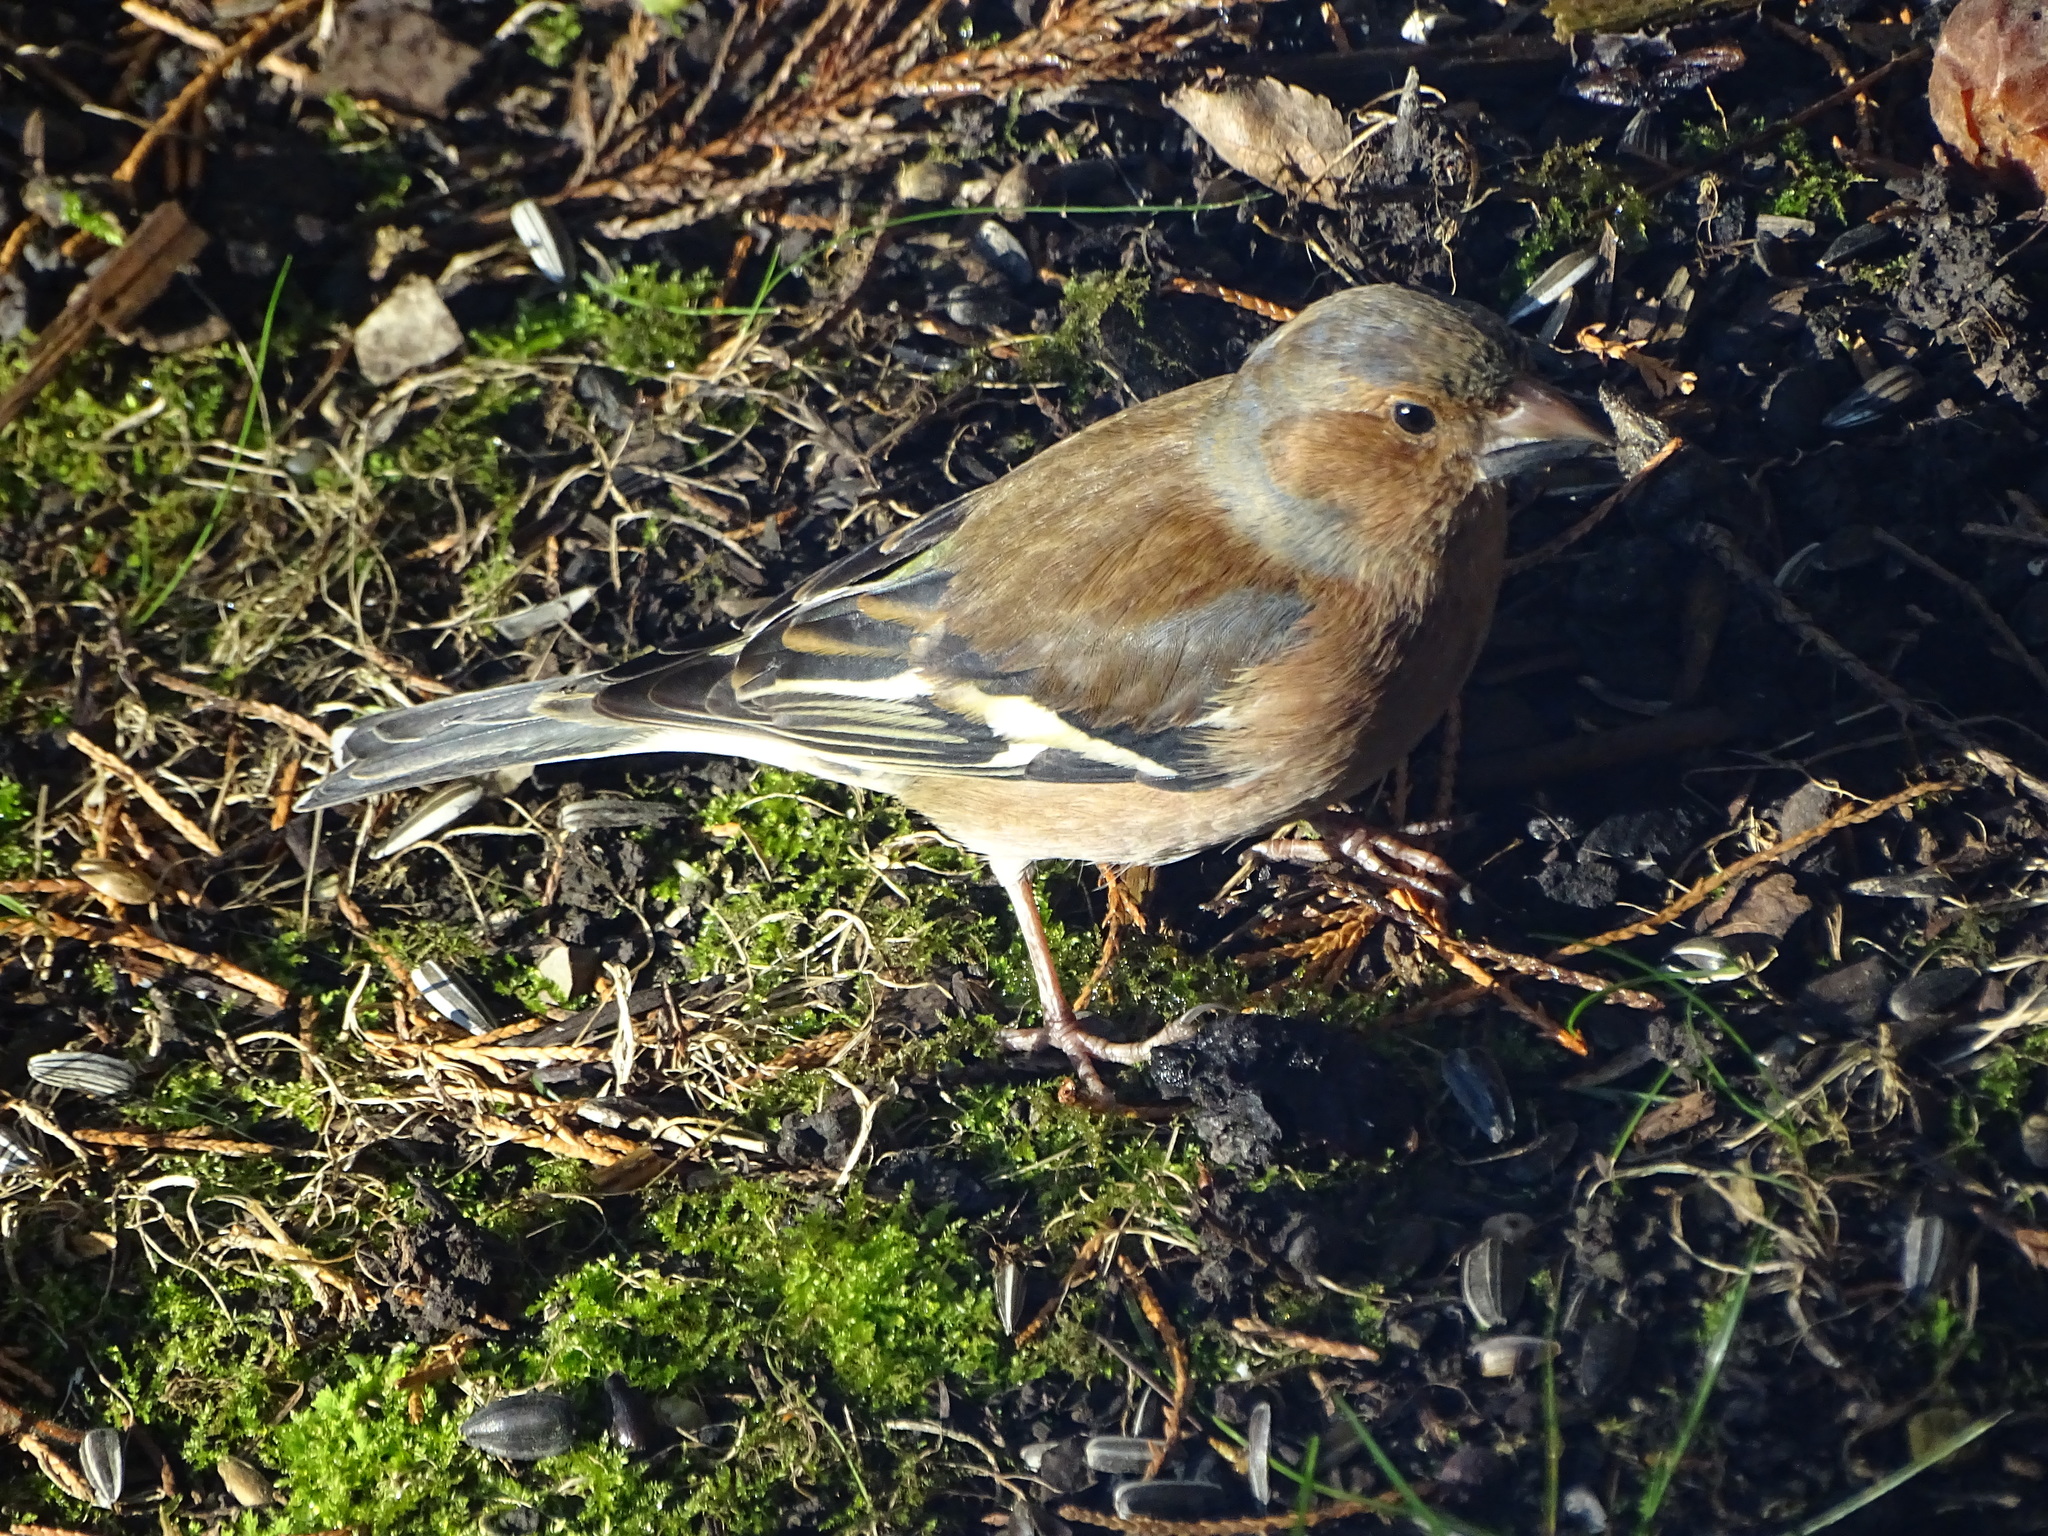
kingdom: Animalia
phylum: Chordata
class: Aves
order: Passeriformes
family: Fringillidae
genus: Fringilla
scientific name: Fringilla coelebs
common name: Common chaffinch
